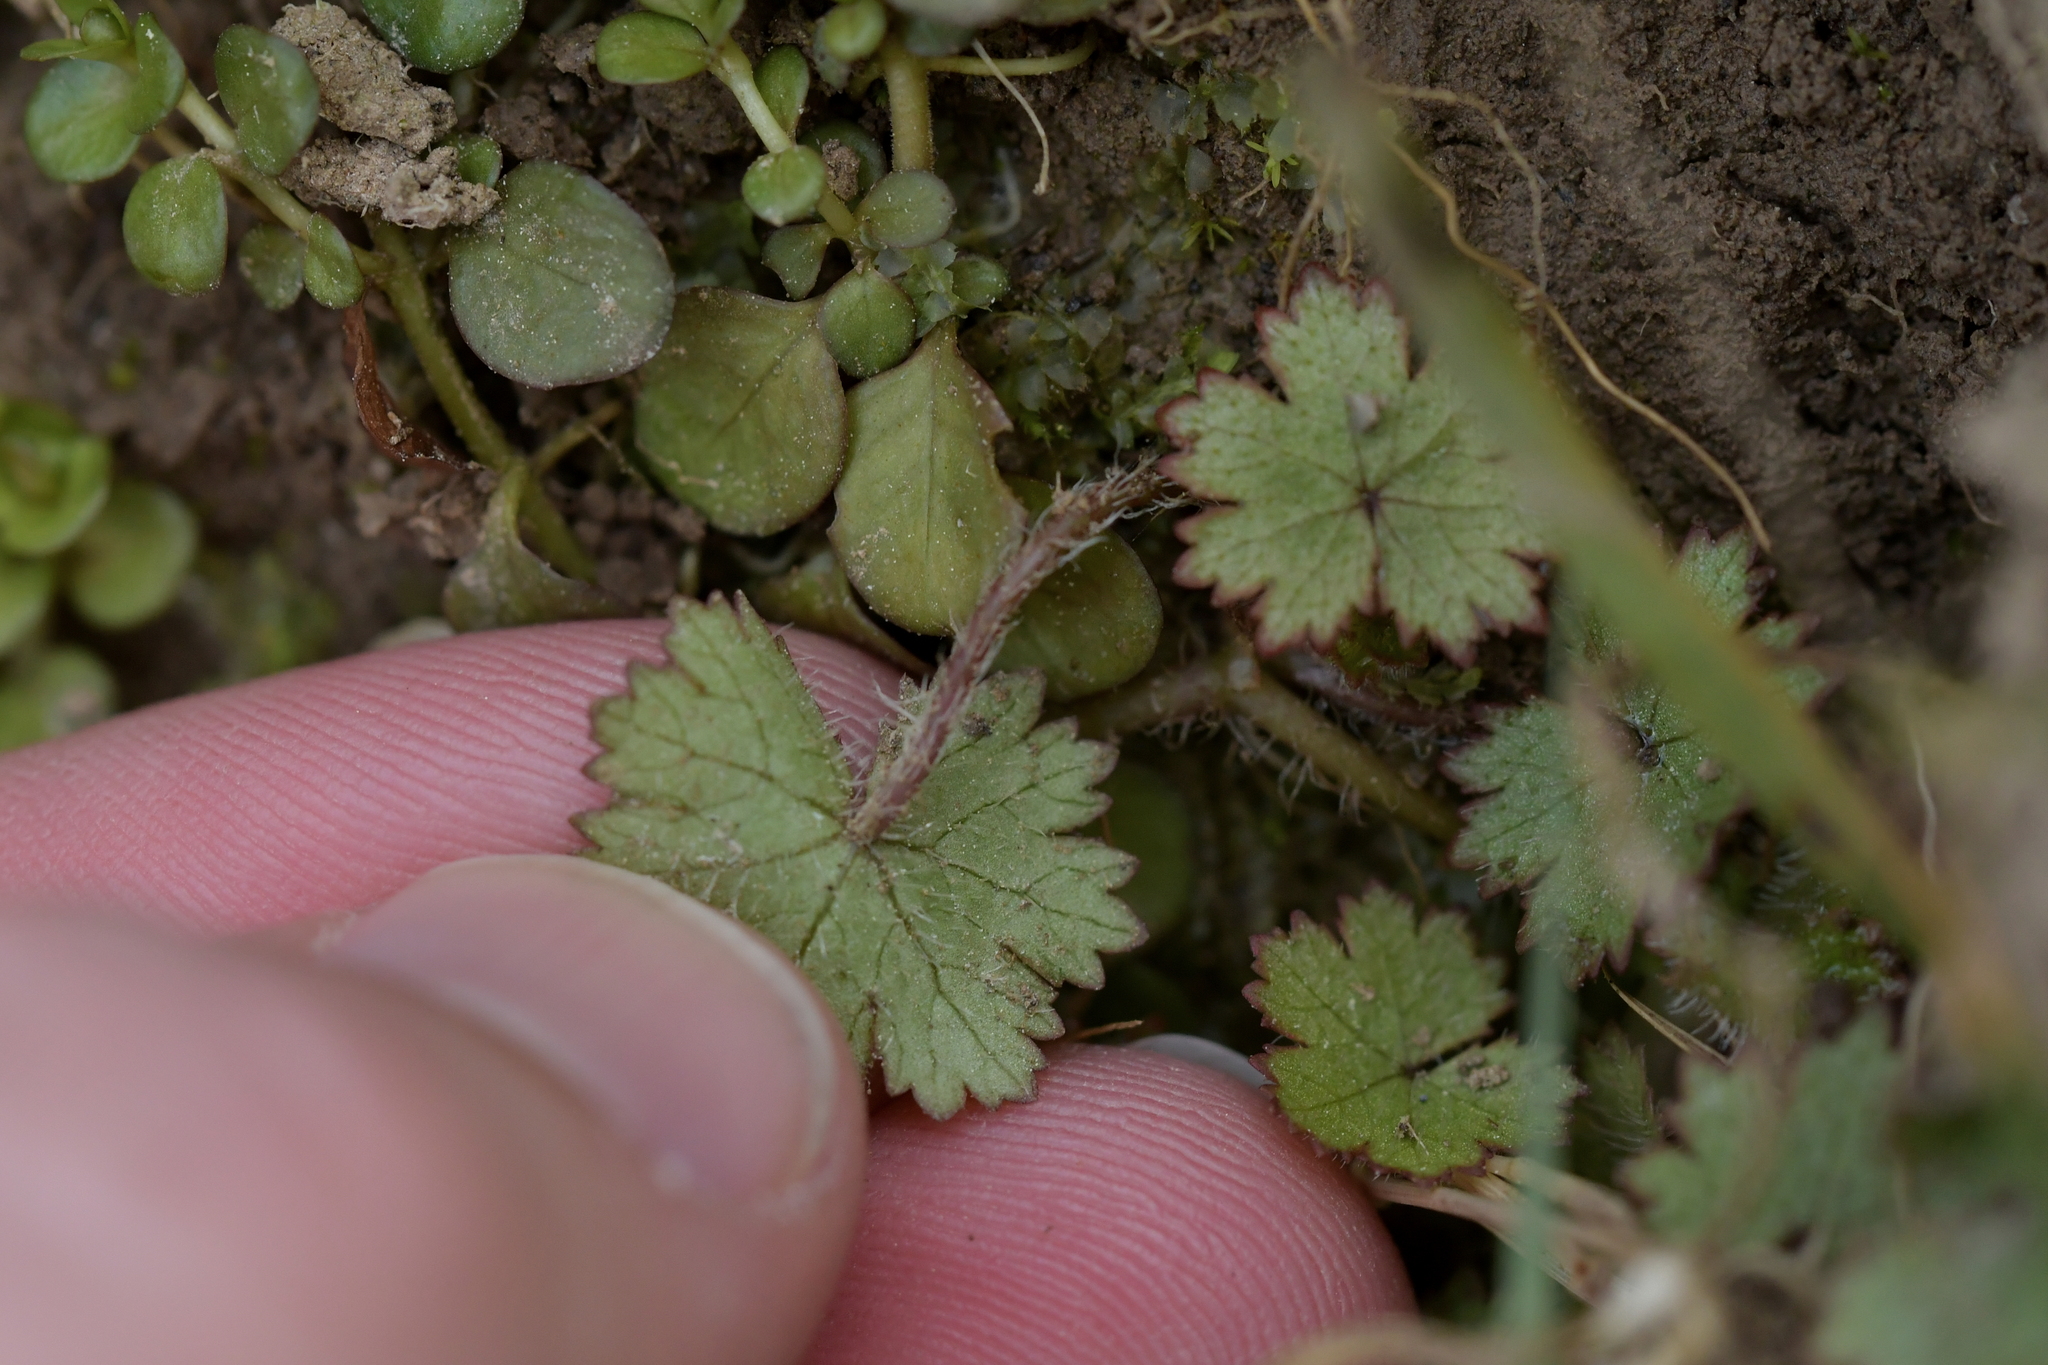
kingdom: Plantae
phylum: Tracheophyta
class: Magnoliopsida
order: Apiales
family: Araliaceae
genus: Hydrocotyle
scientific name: Hydrocotyle moschata
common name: Hairy pennywort
